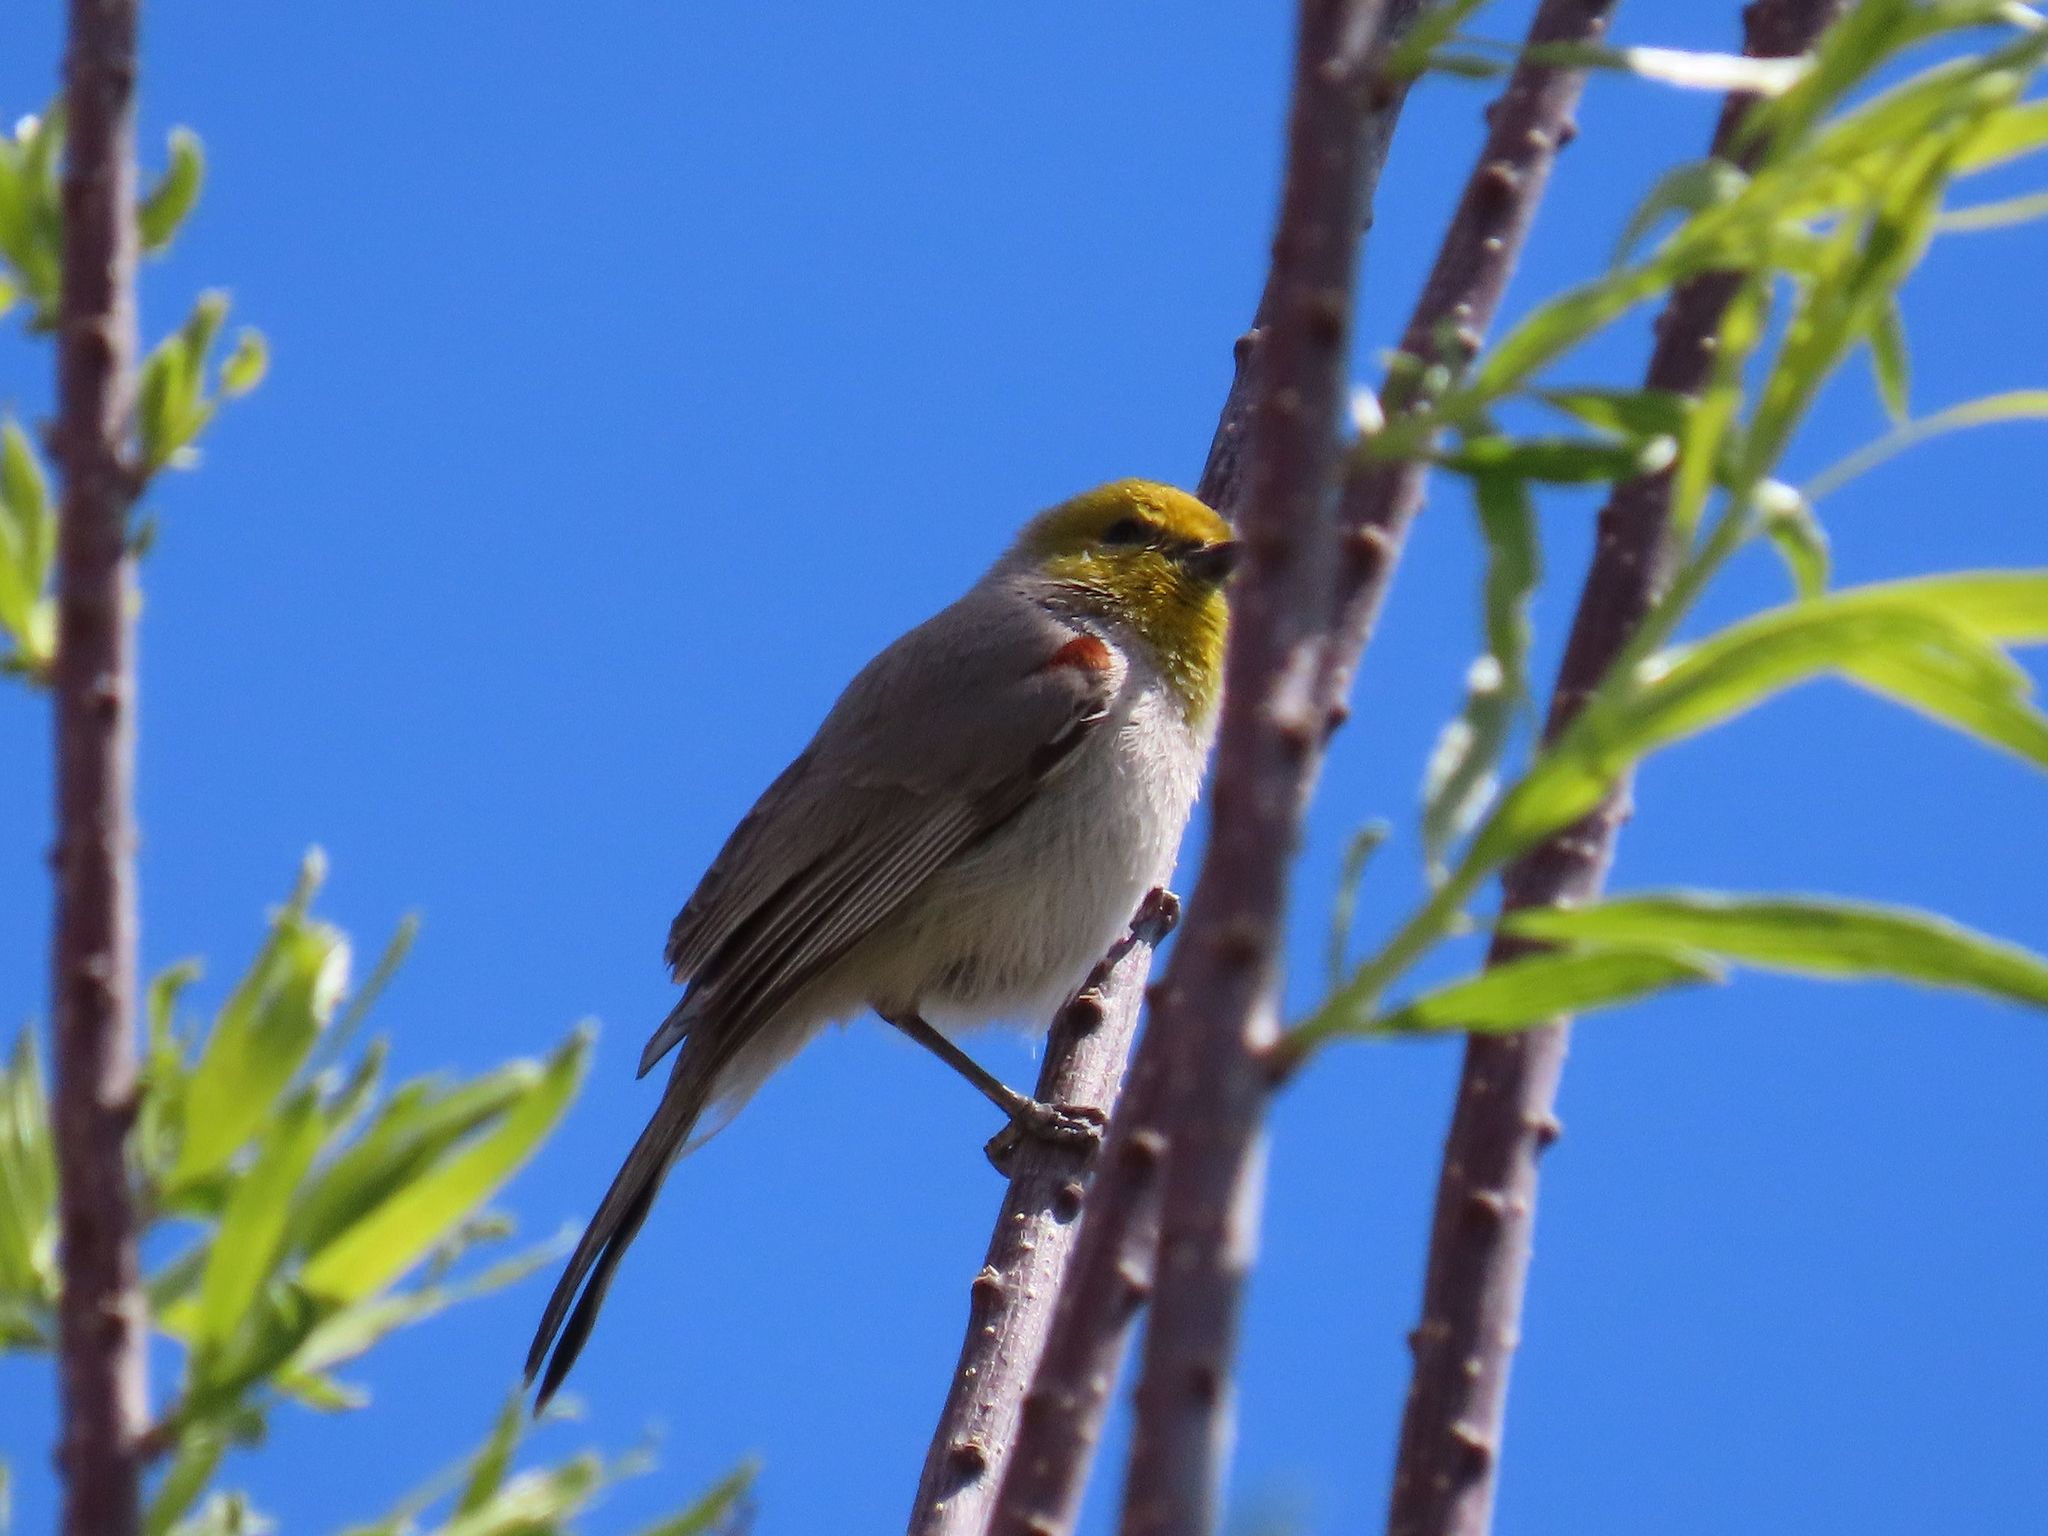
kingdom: Animalia
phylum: Chordata
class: Aves
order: Passeriformes
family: Remizidae
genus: Auriparus
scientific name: Auriparus flaviceps
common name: Verdin
